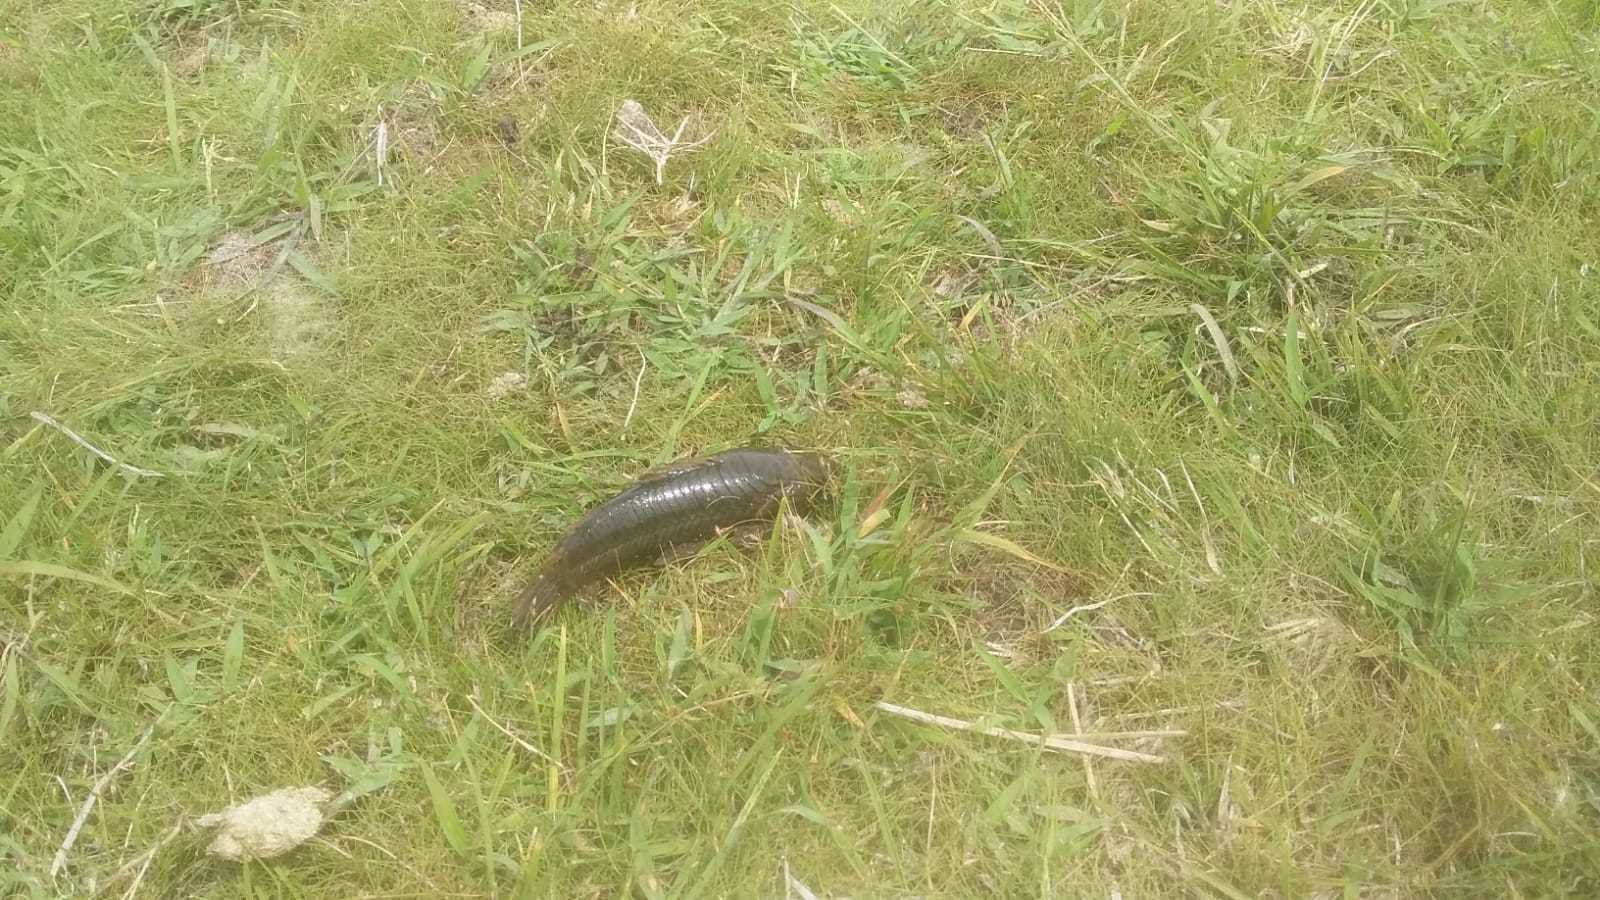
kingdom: Animalia
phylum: Chordata
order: Siluriformes
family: Callichthyidae
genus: Callichthys
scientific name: Callichthys callichthys
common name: Cascarudo
